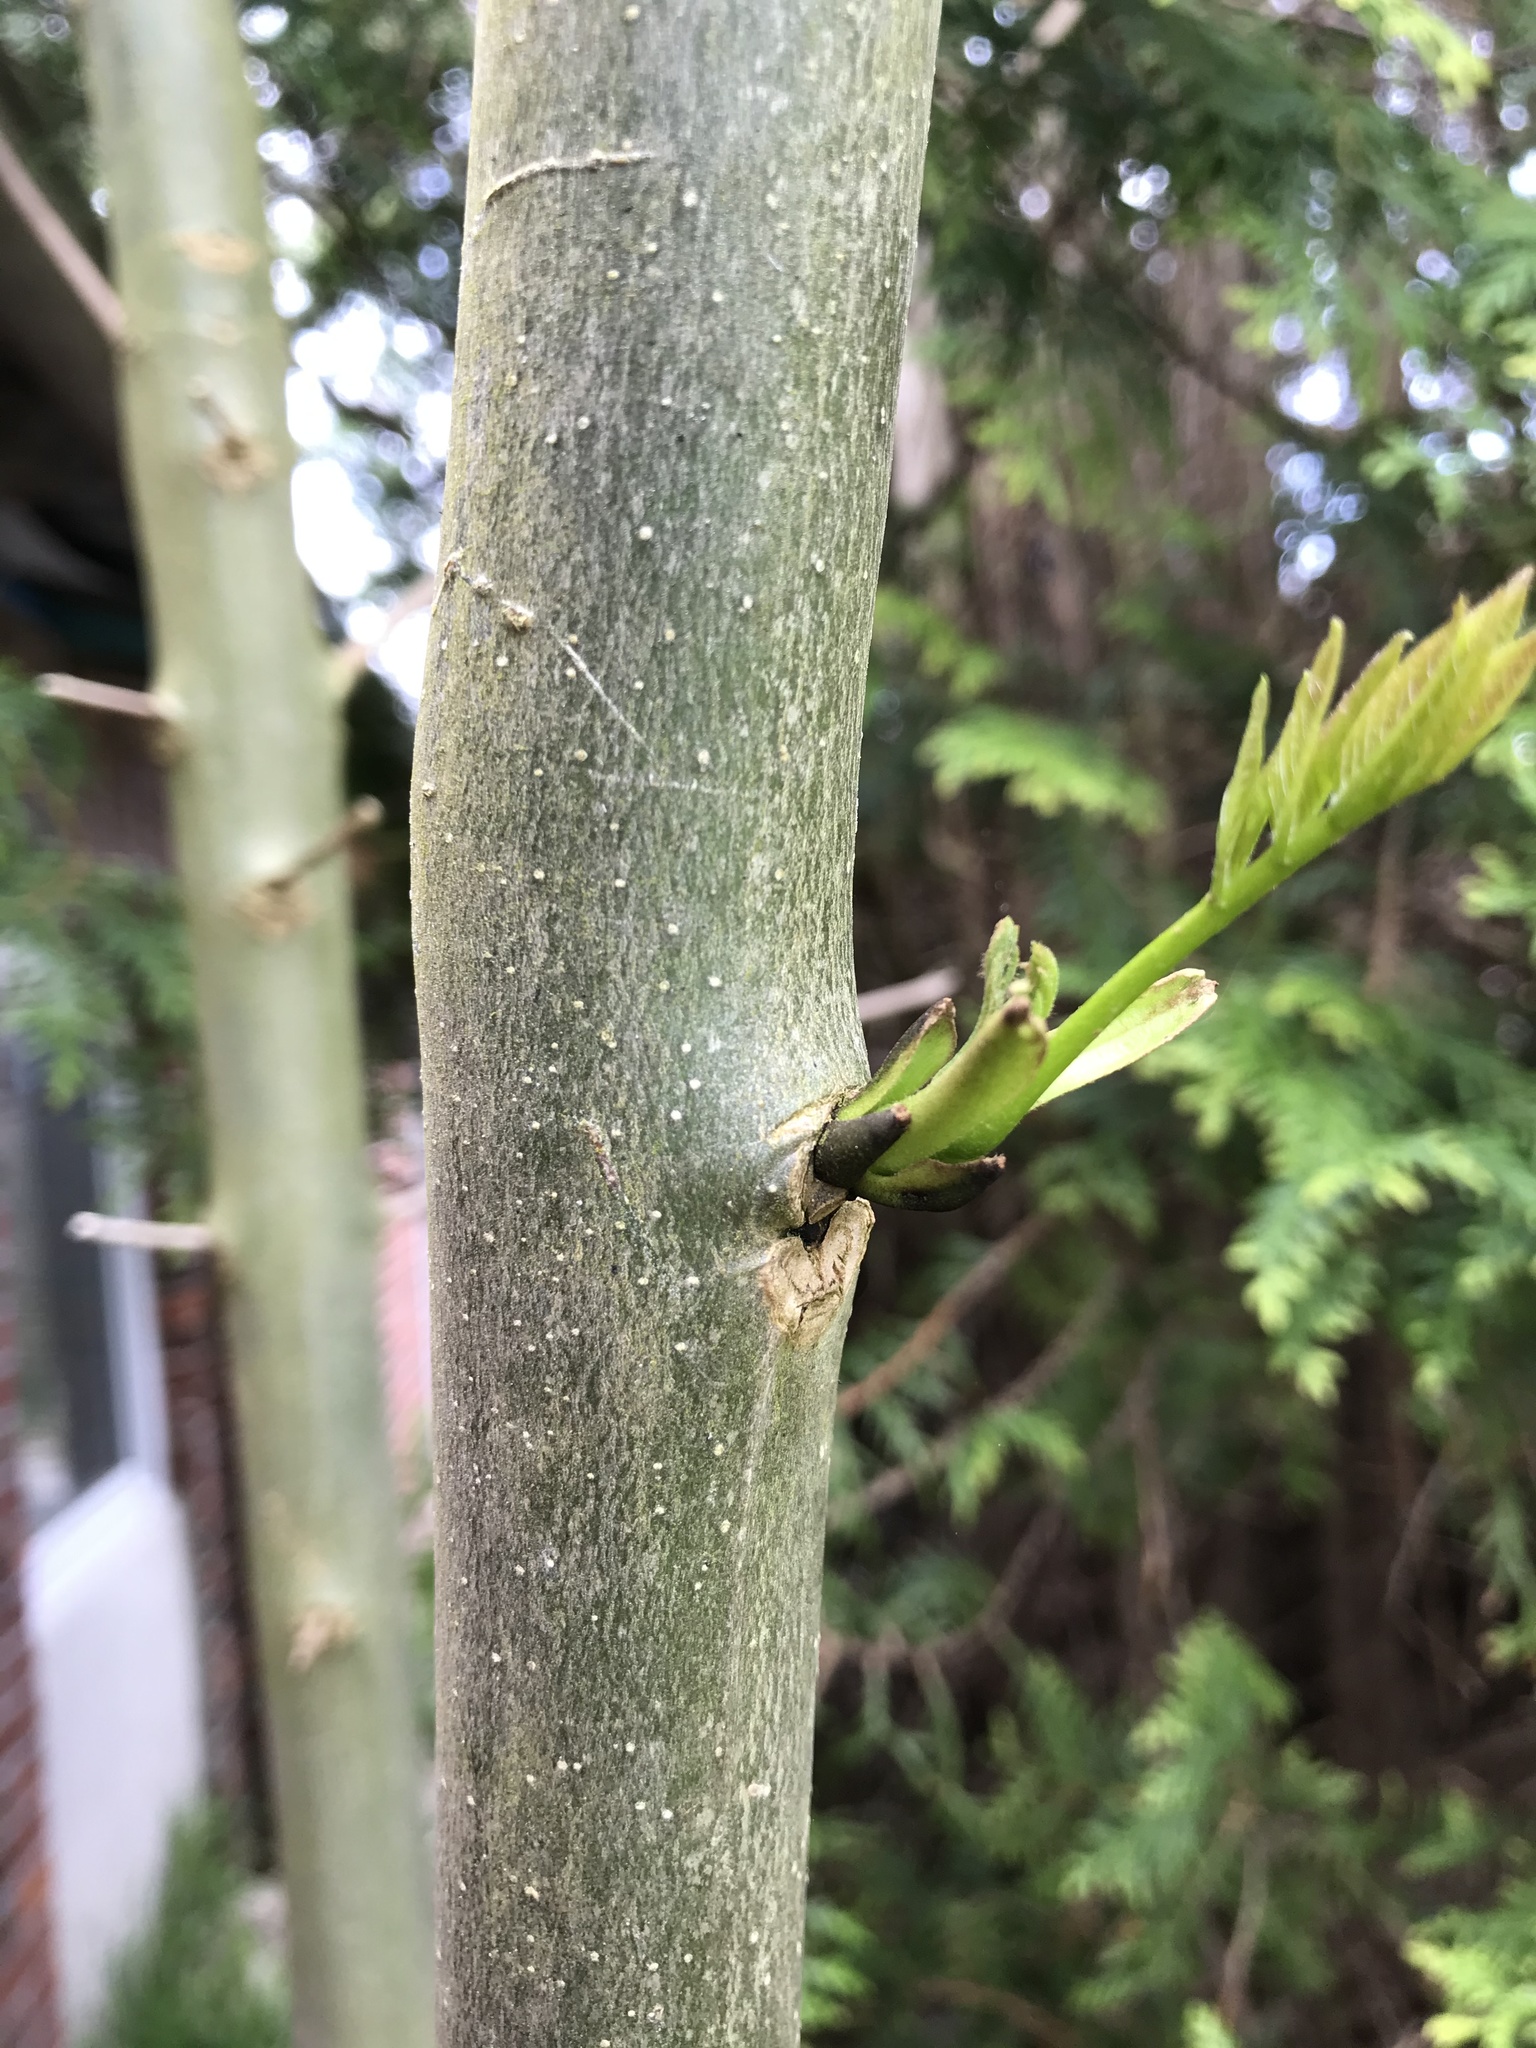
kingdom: Plantae
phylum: Tracheophyta
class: Magnoliopsida
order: Lamiales
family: Oleaceae
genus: Fraxinus
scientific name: Fraxinus excelsior
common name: European ash
